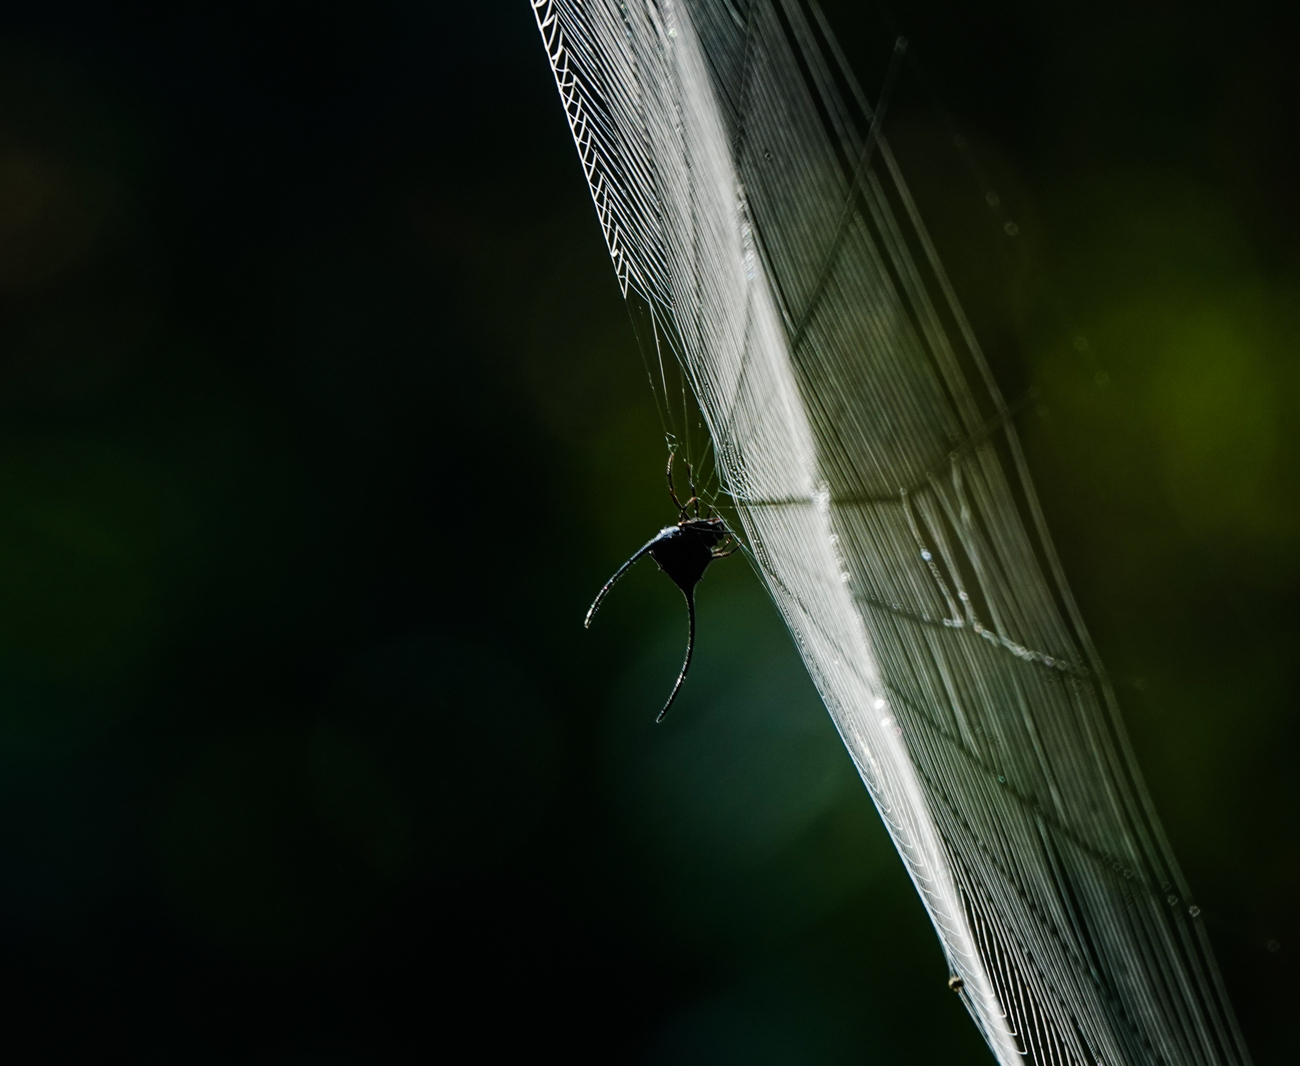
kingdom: Animalia
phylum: Arthropoda
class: Arachnida
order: Araneae
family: Araneidae
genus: Macracantha
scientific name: Macracantha arcuata
